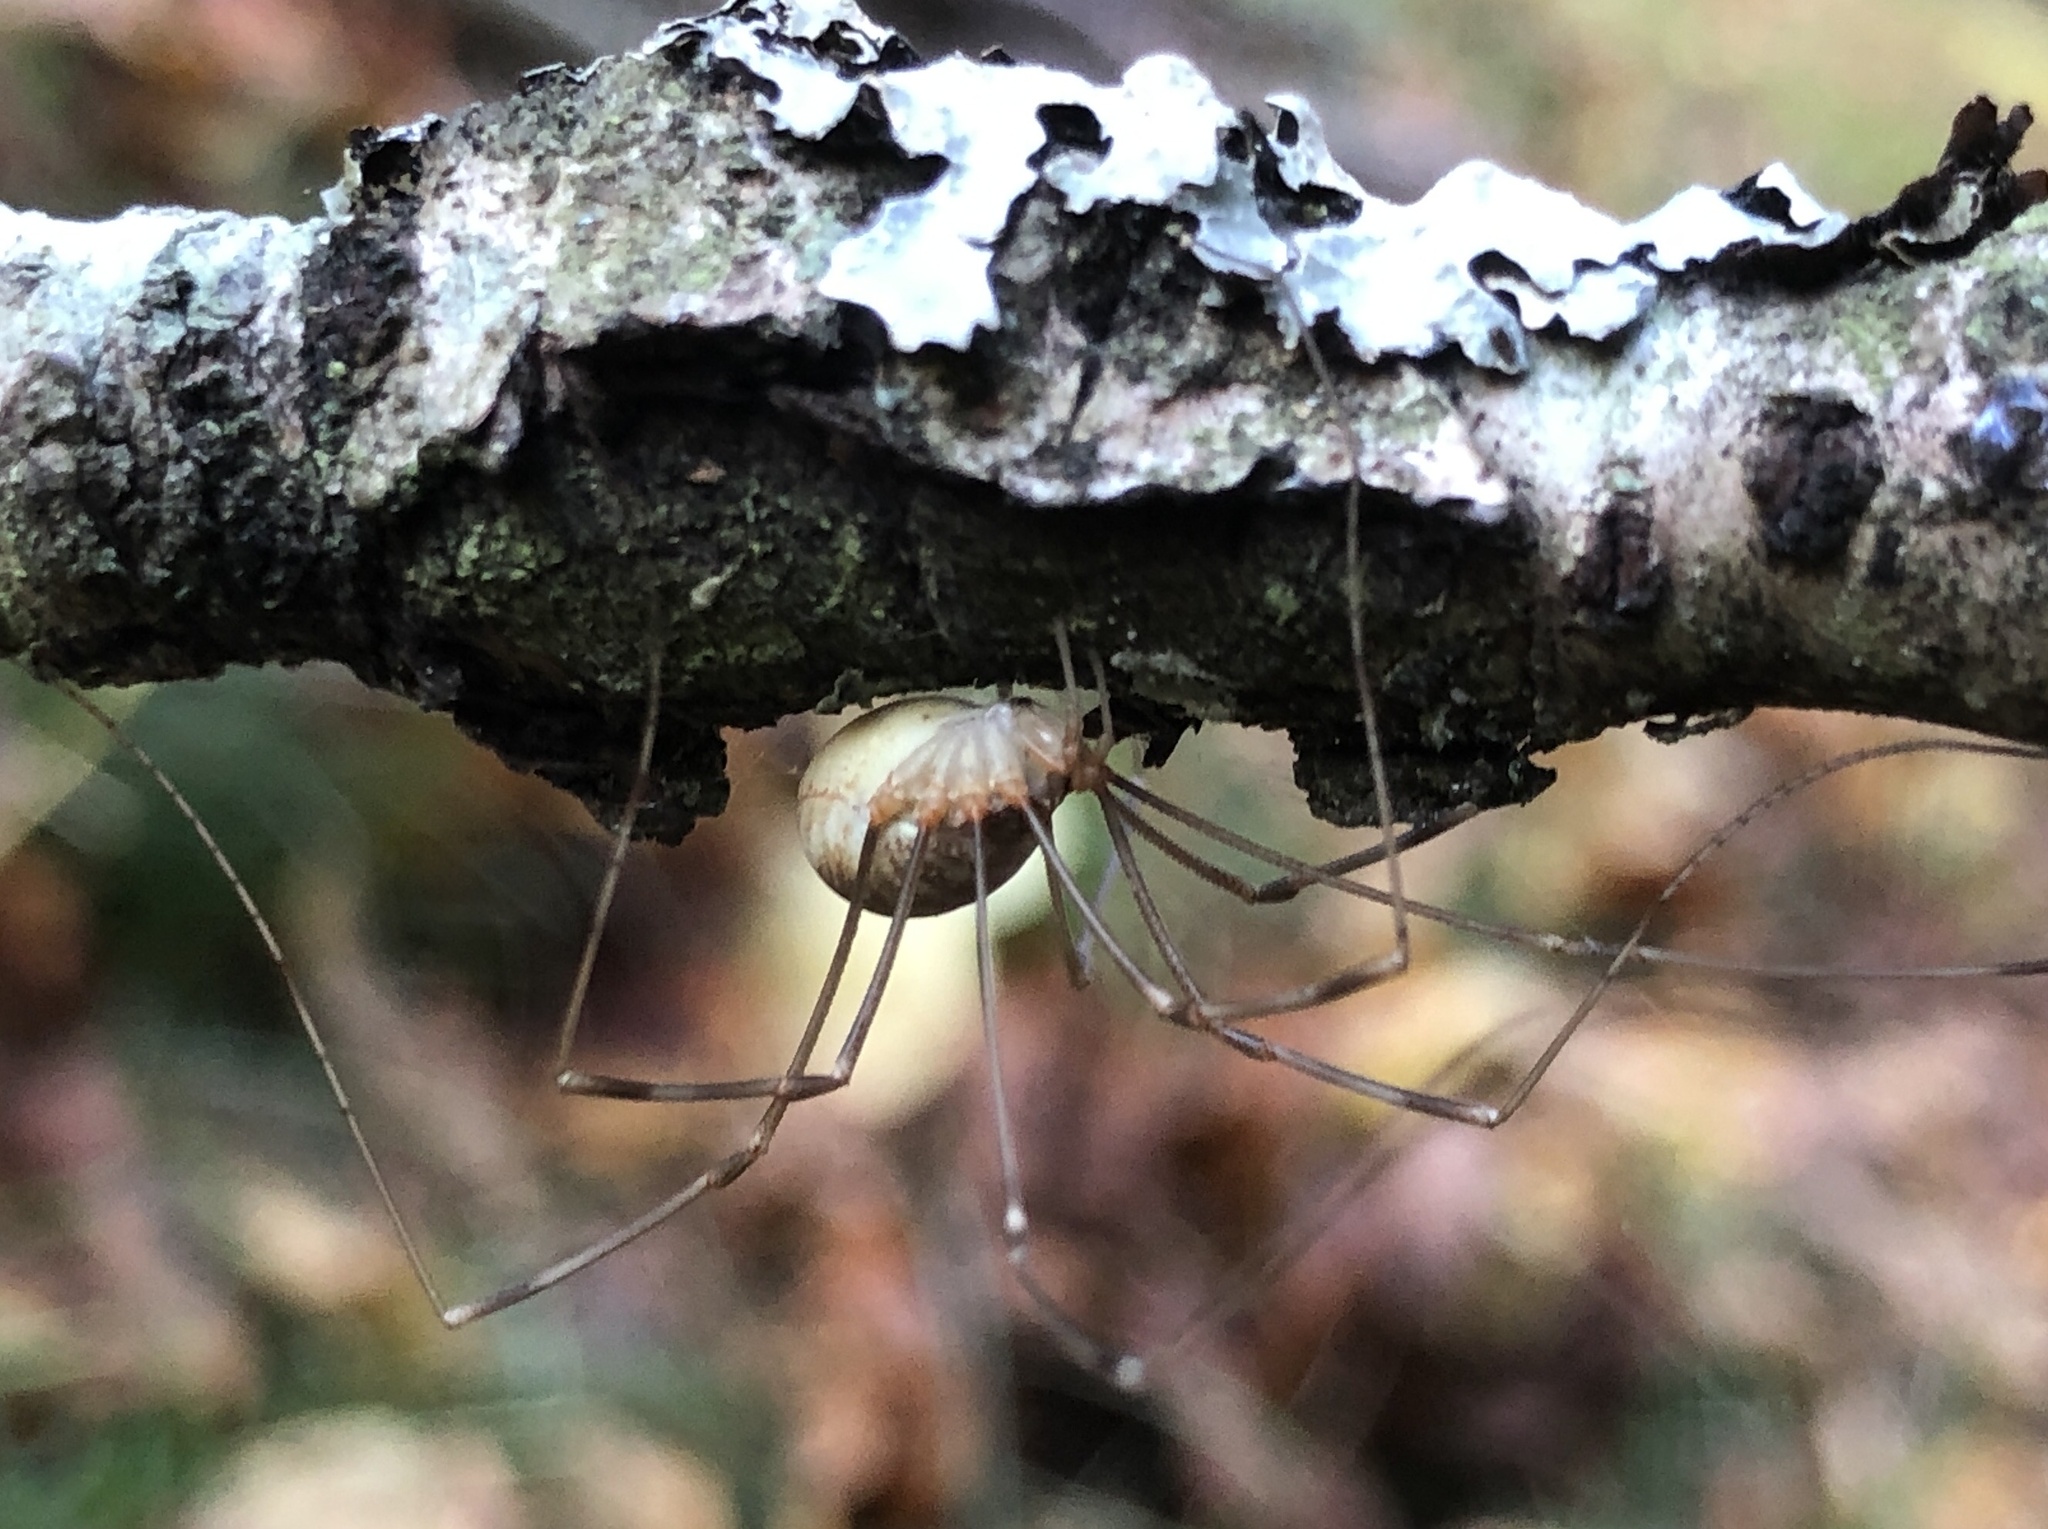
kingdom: Animalia
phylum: Arthropoda
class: Arachnida
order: Opiliones
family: Phalangiidae
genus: Opilio
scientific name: Opilio canestrinii
